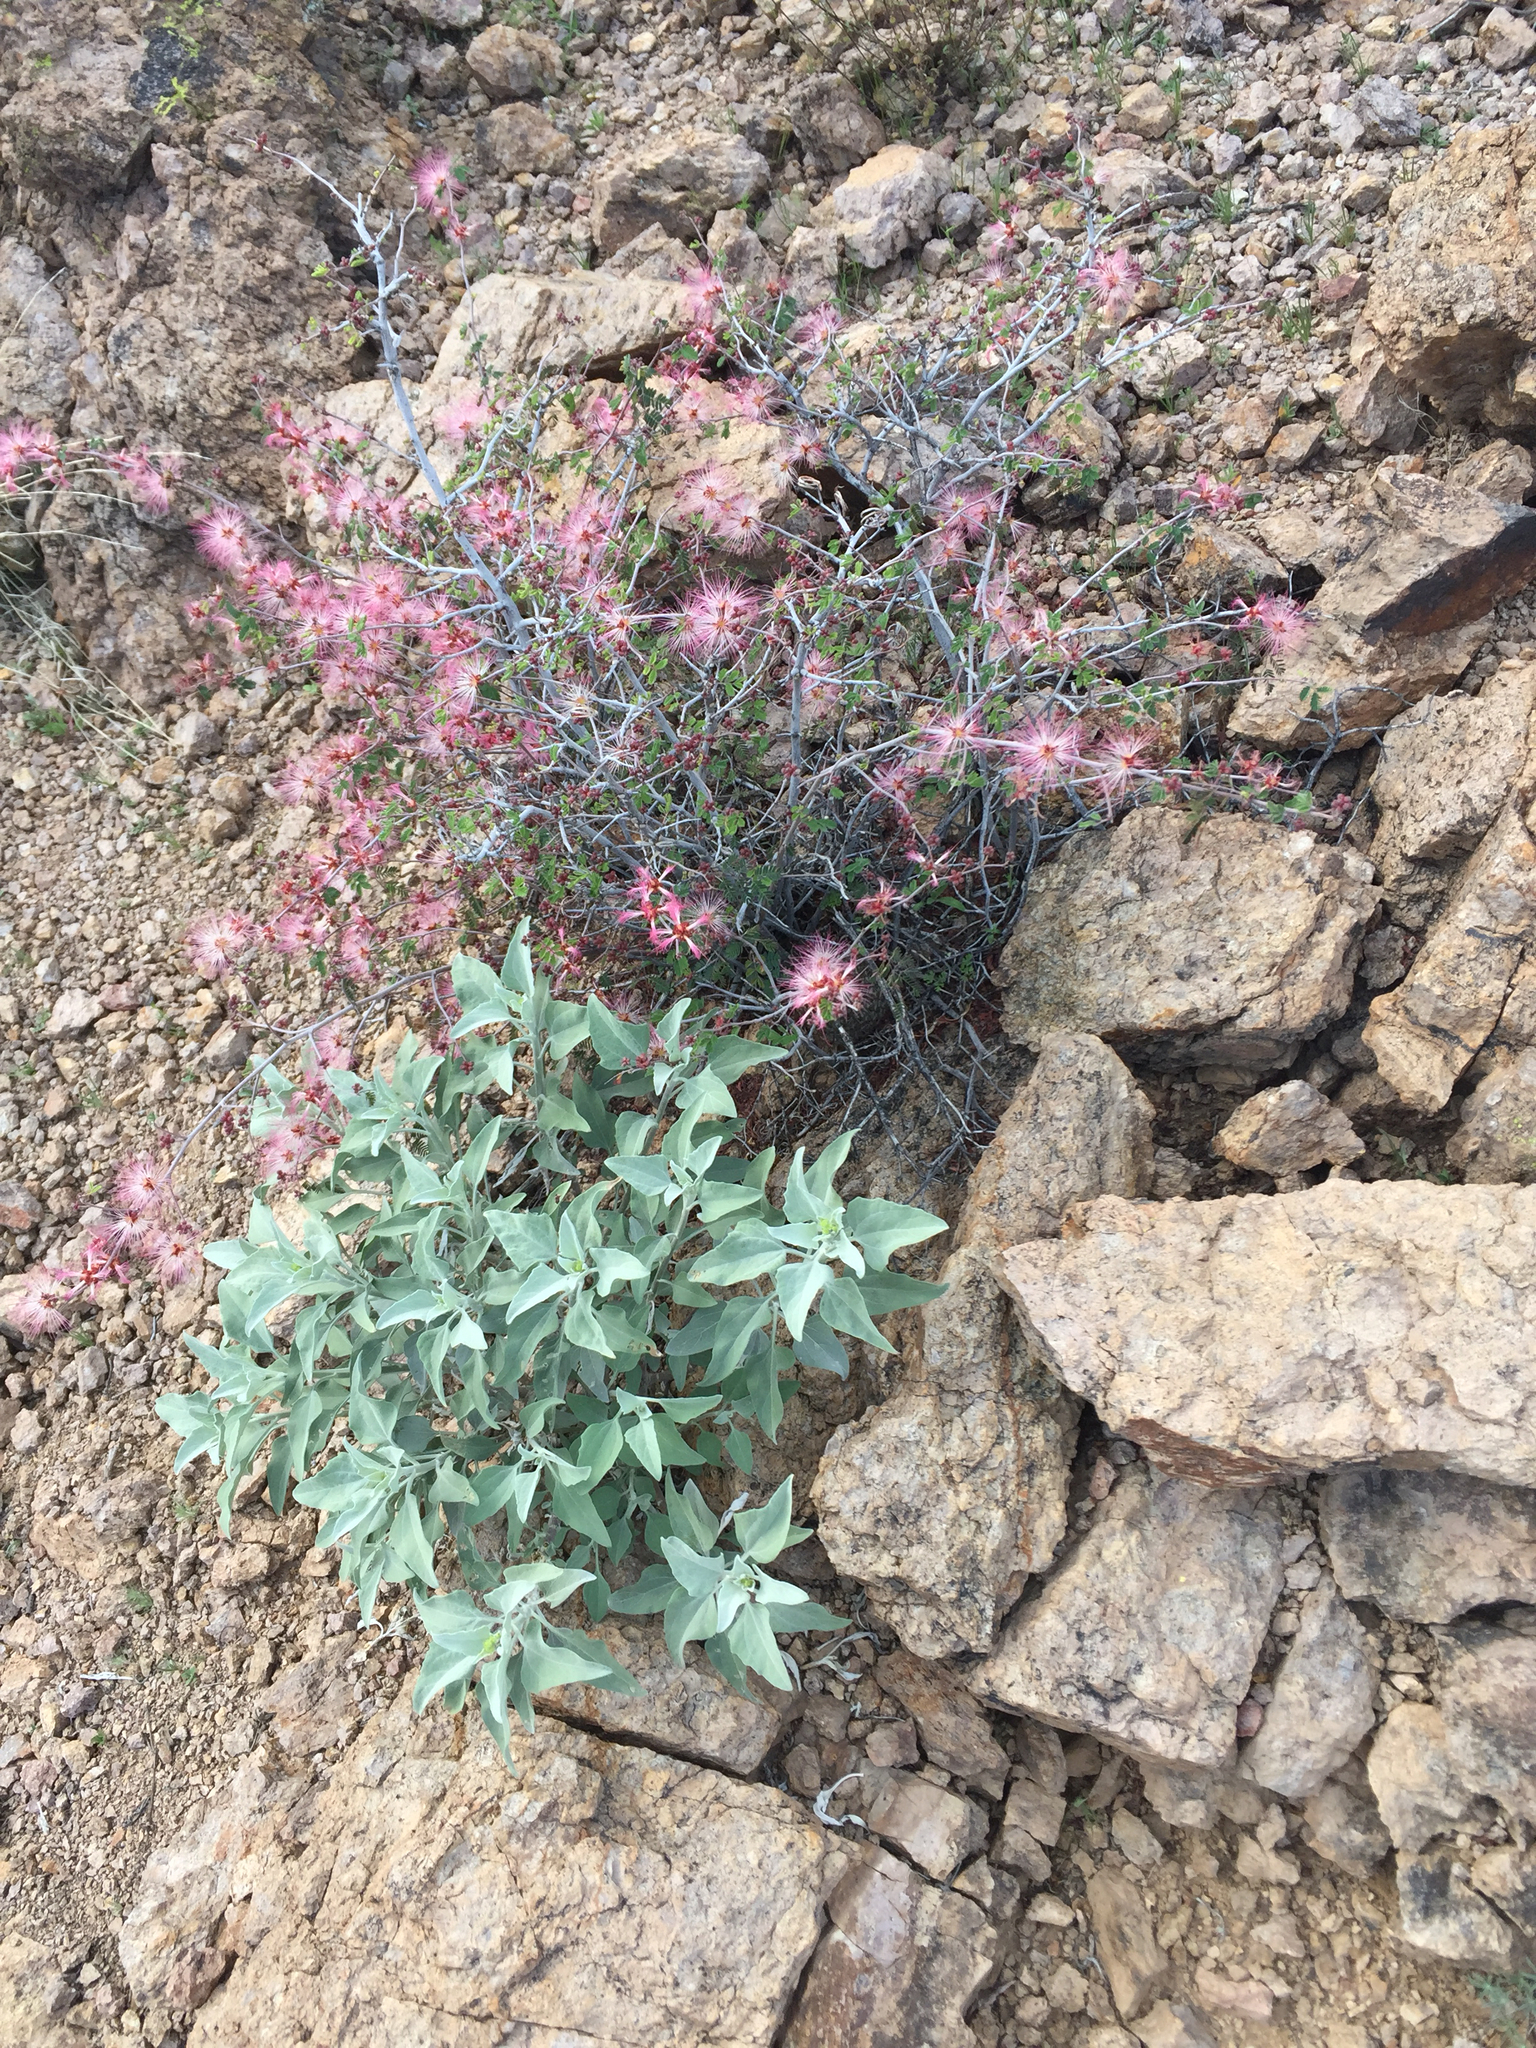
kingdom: Plantae
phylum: Tracheophyta
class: Magnoliopsida
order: Fabales
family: Fabaceae
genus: Calliandra
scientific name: Calliandra eriophylla
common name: Fairy-duster
